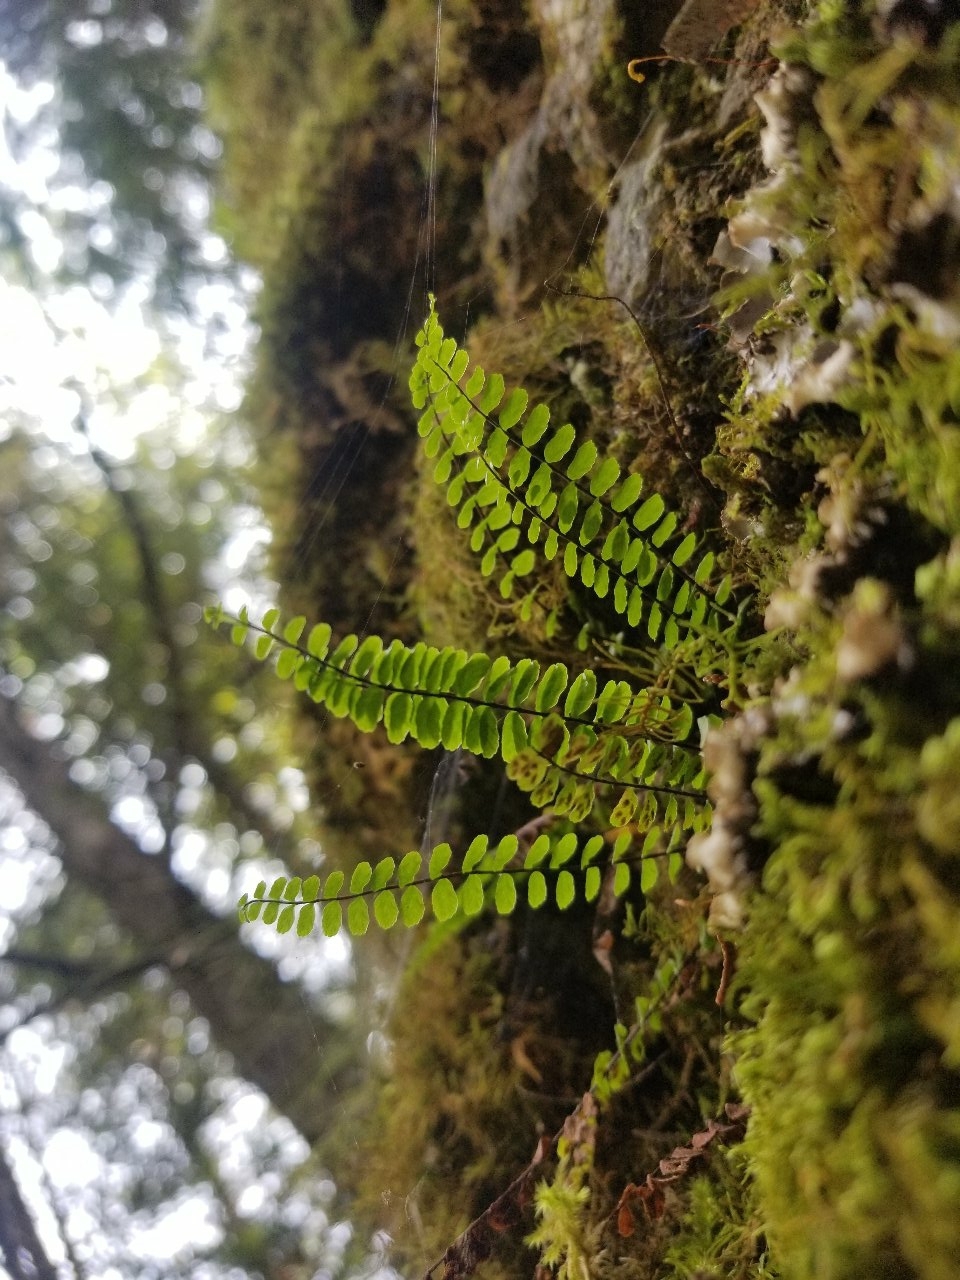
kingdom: Plantae
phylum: Tracheophyta
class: Polypodiopsida
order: Polypodiales
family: Aspleniaceae
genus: Asplenium
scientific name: Asplenium trichomanes
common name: Maidenhair spleenwort
